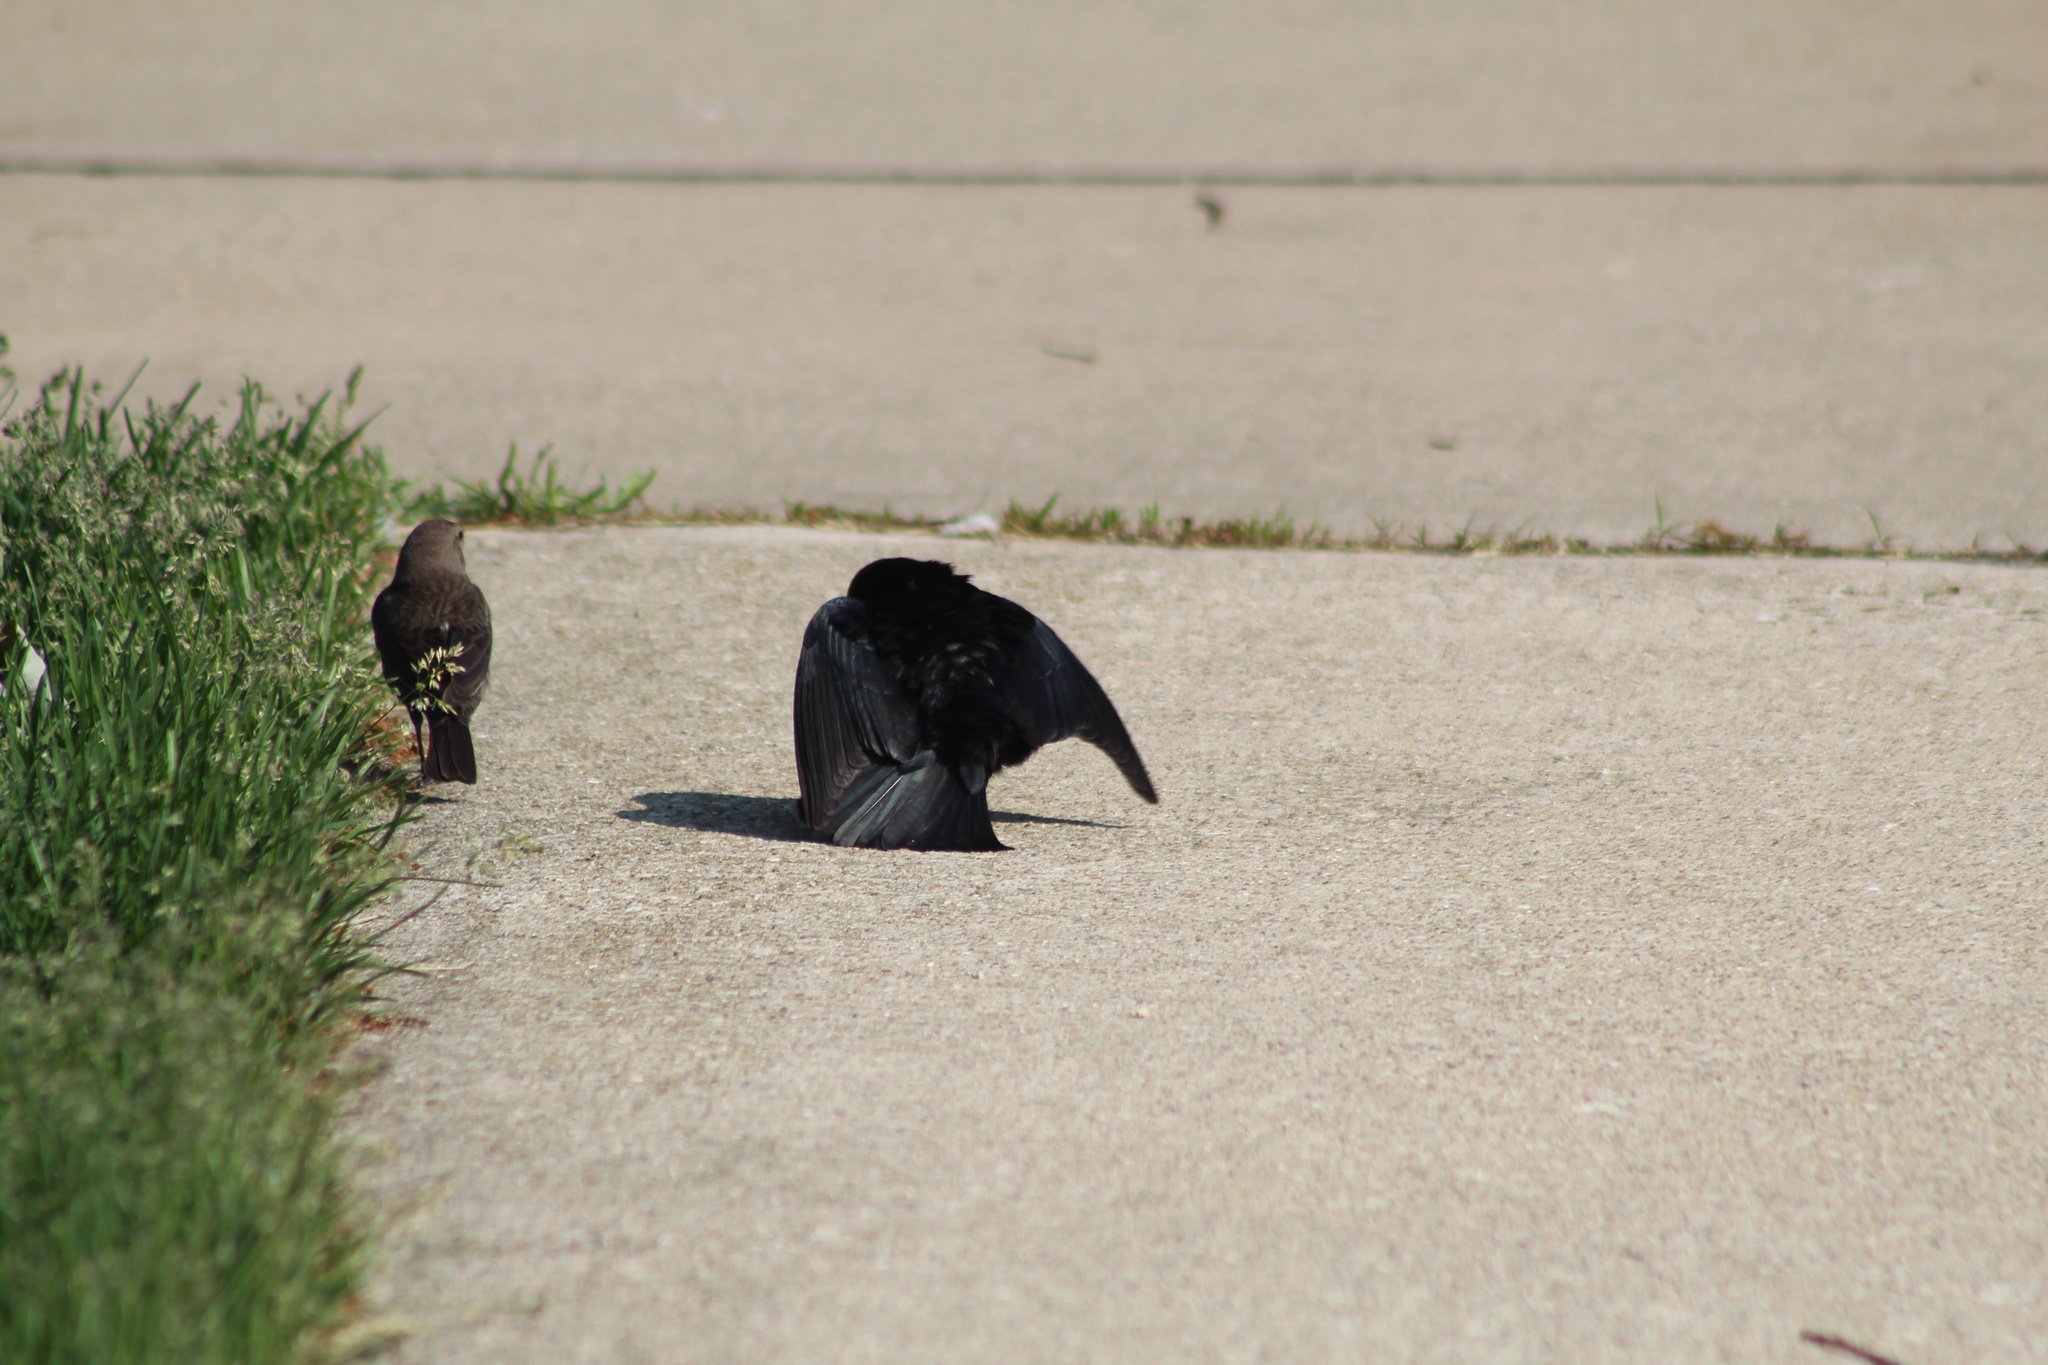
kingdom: Animalia
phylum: Chordata
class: Aves
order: Passeriformes
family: Icteridae
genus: Molothrus
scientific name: Molothrus ater
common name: Brown-headed cowbird
